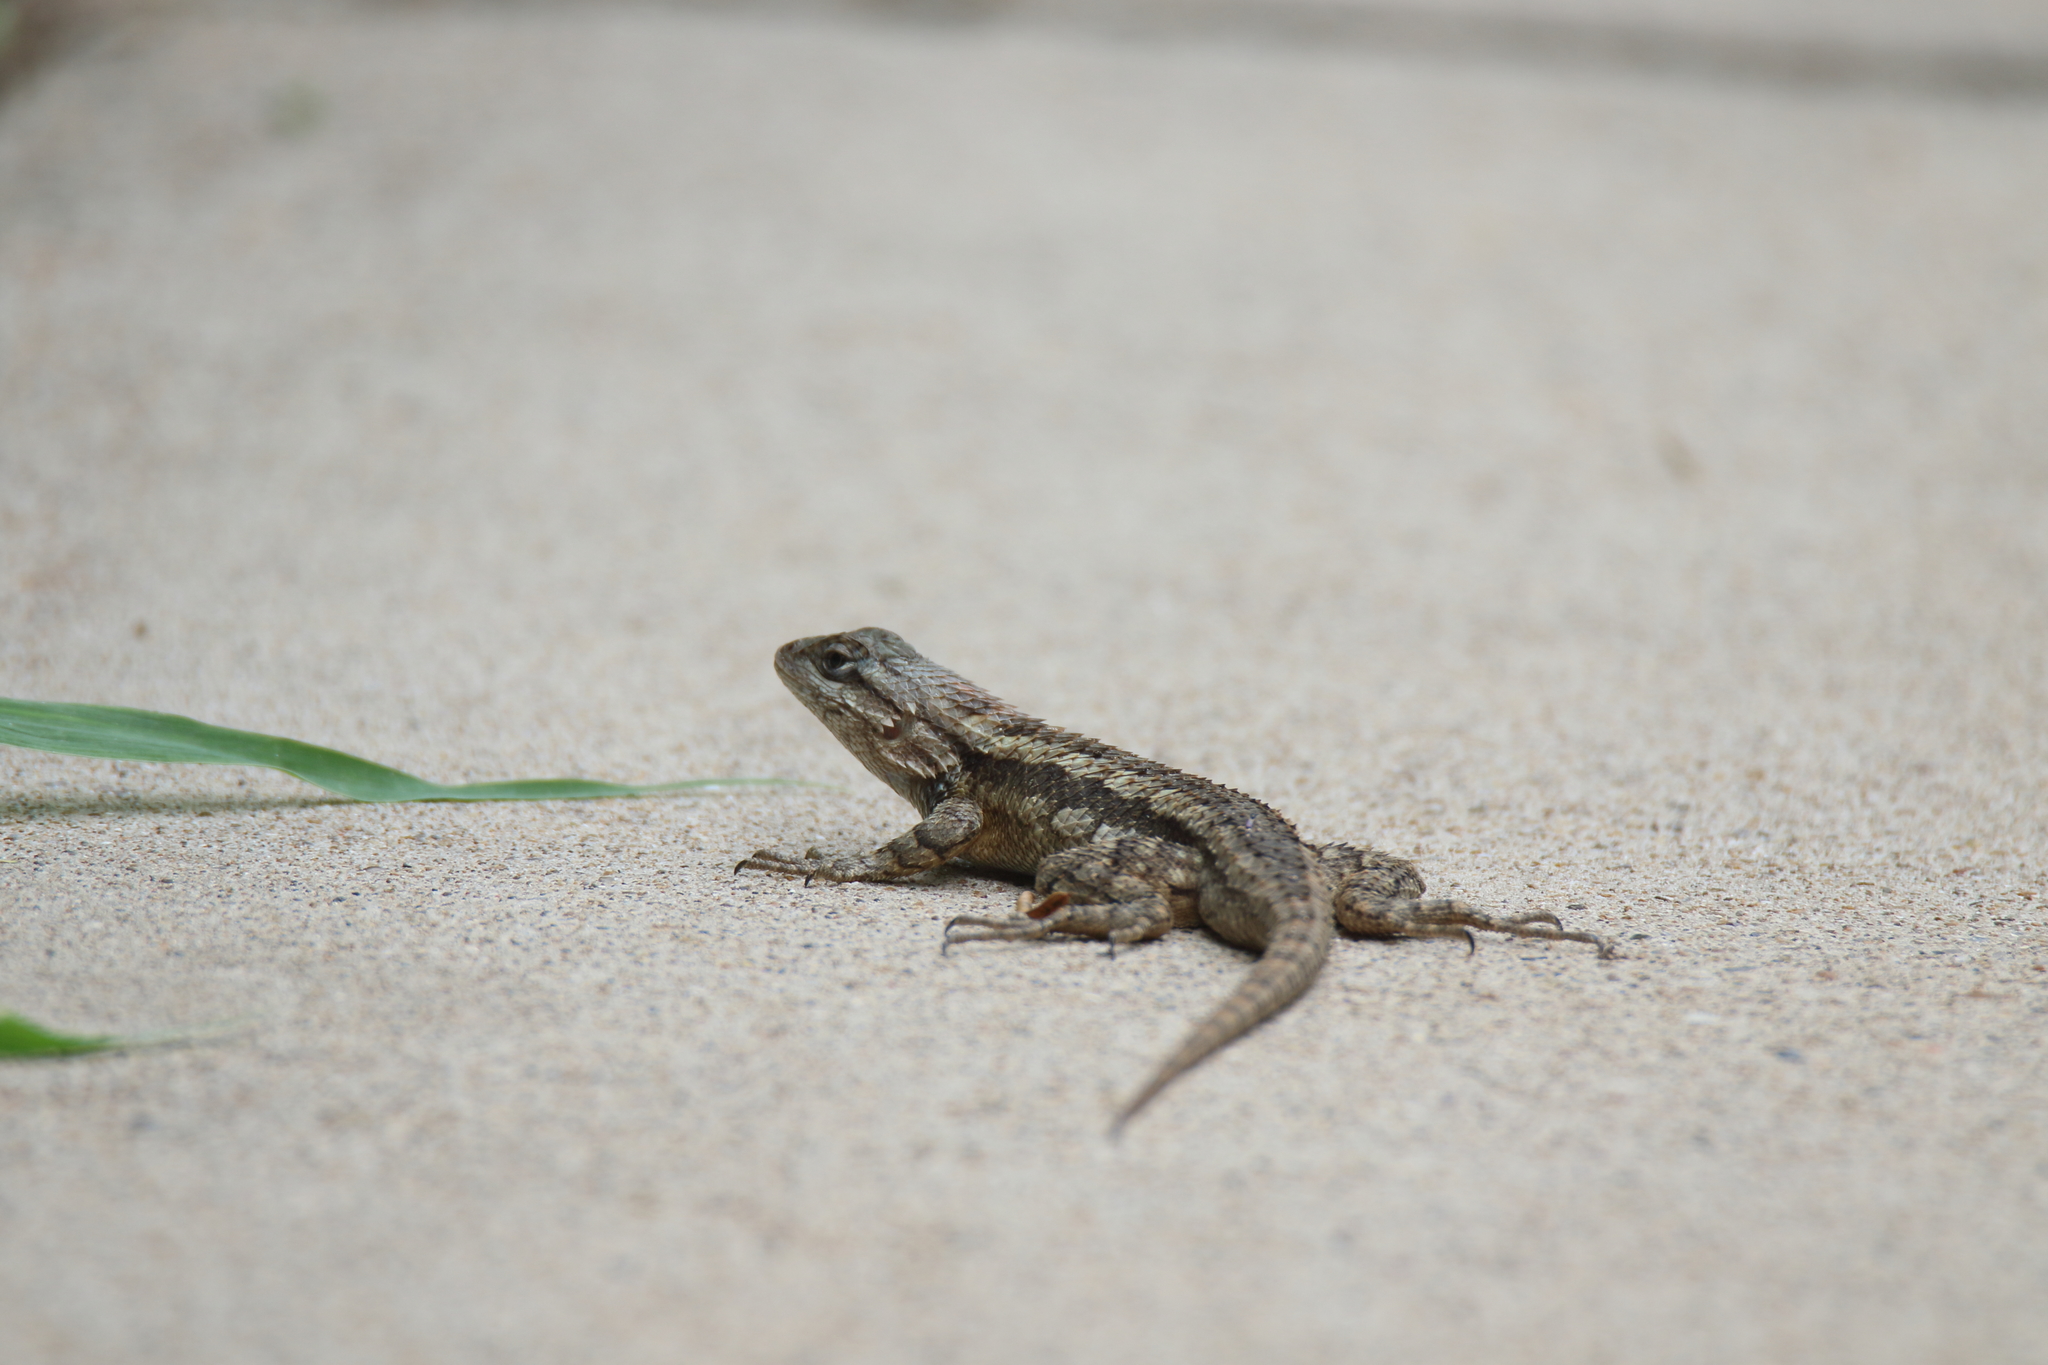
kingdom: Animalia
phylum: Chordata
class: Squamata
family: Phrynosomatidae
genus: Sceloporus
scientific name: Sceloporus olivaceus
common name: Texas spiny lizard
